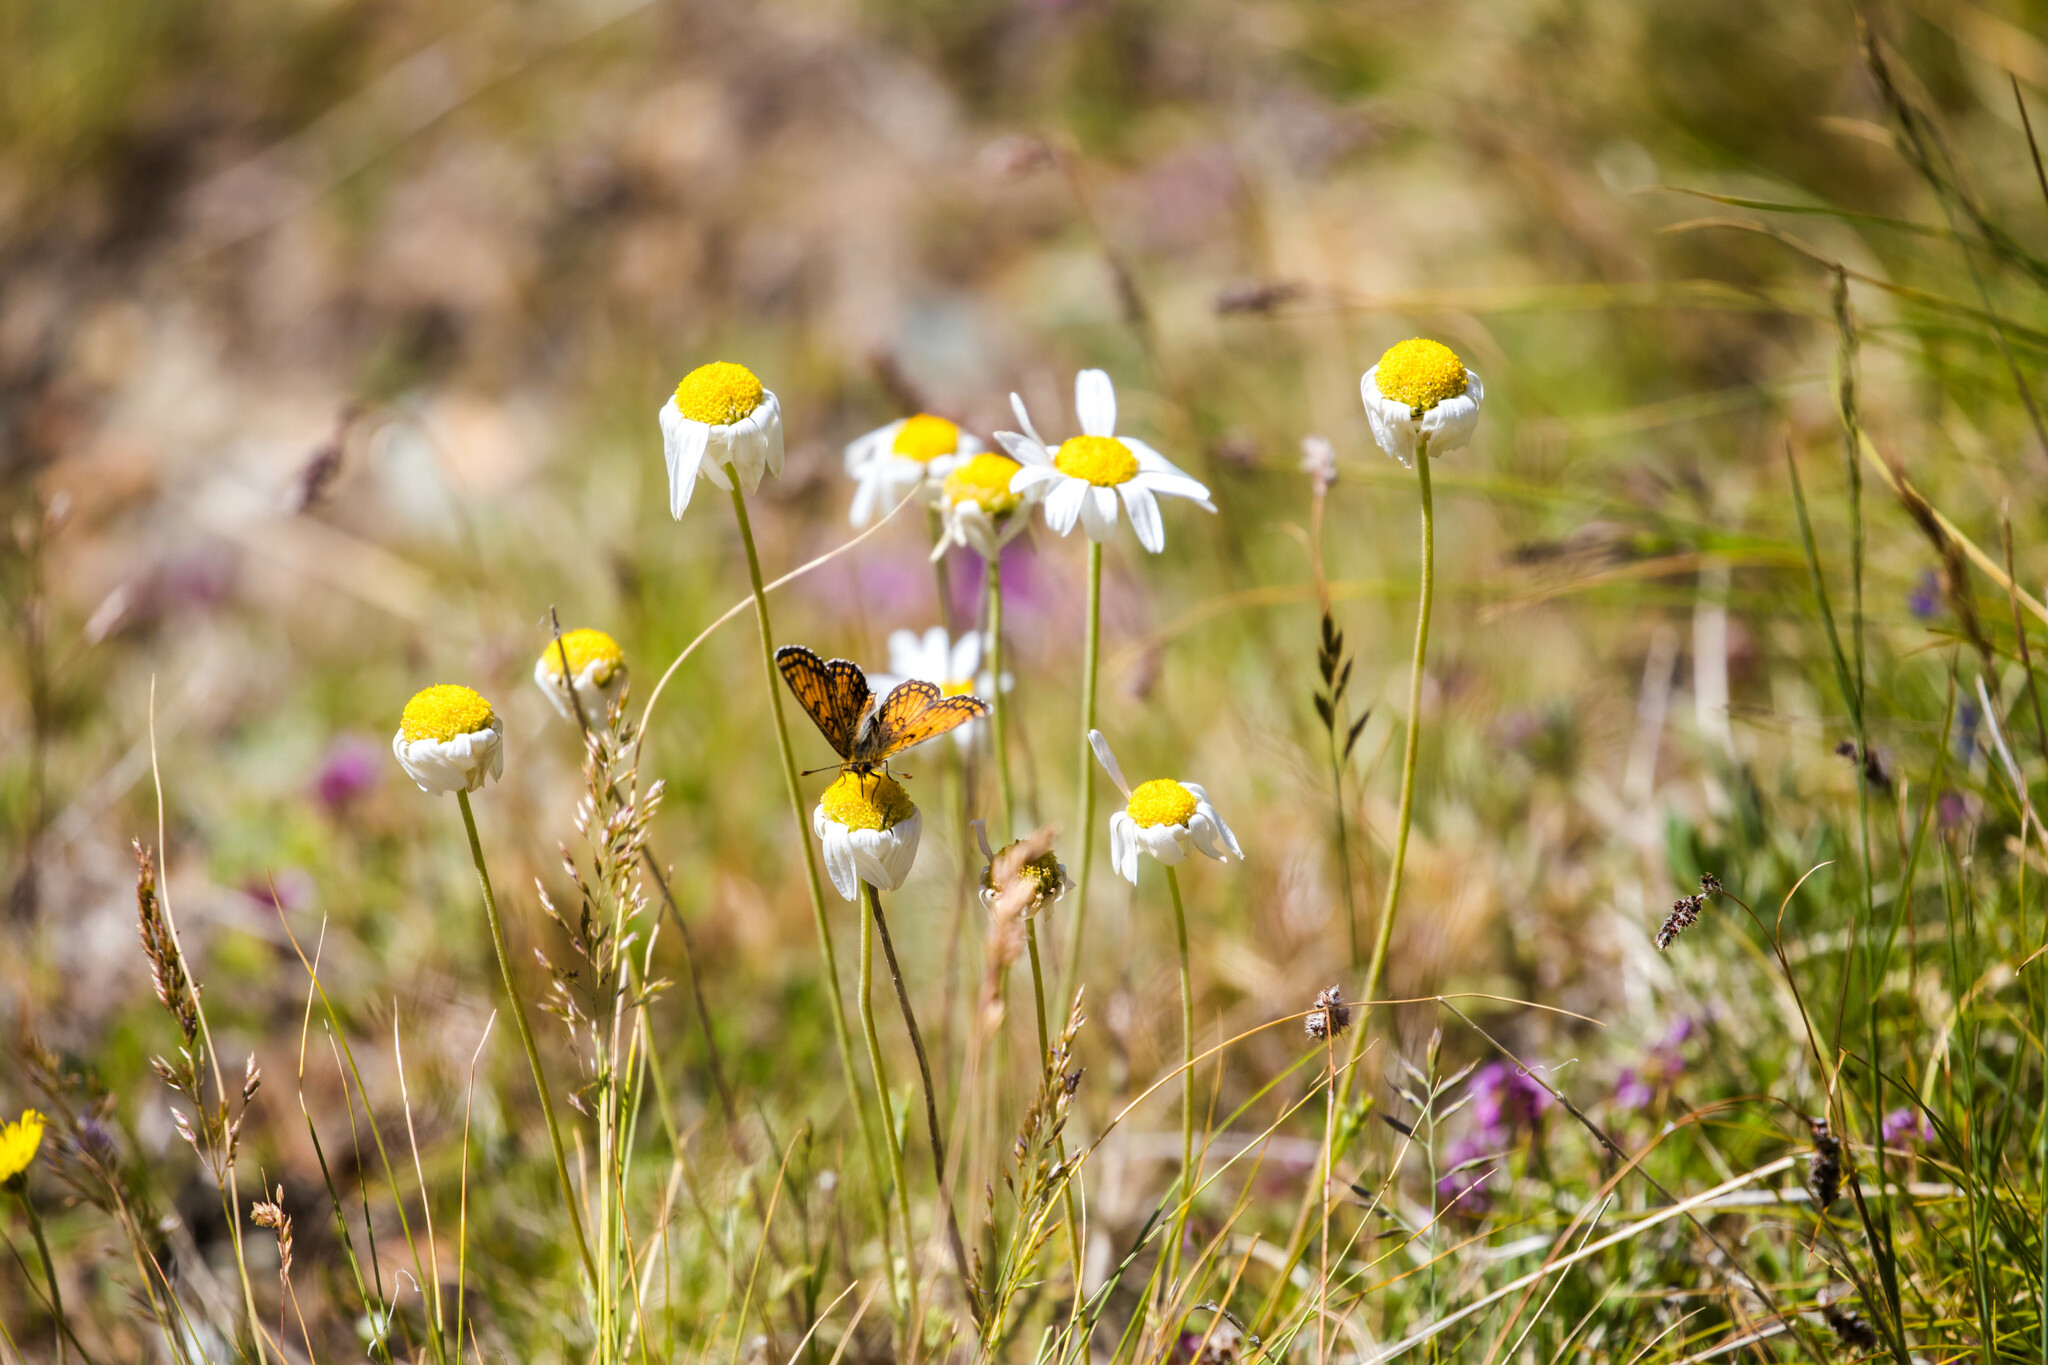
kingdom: Animalia
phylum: Arthropoda
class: Insecta
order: Lepidoptera
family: Nymphalidae
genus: Melitaea
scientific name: Melitaea varia
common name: Grisons fritillary
